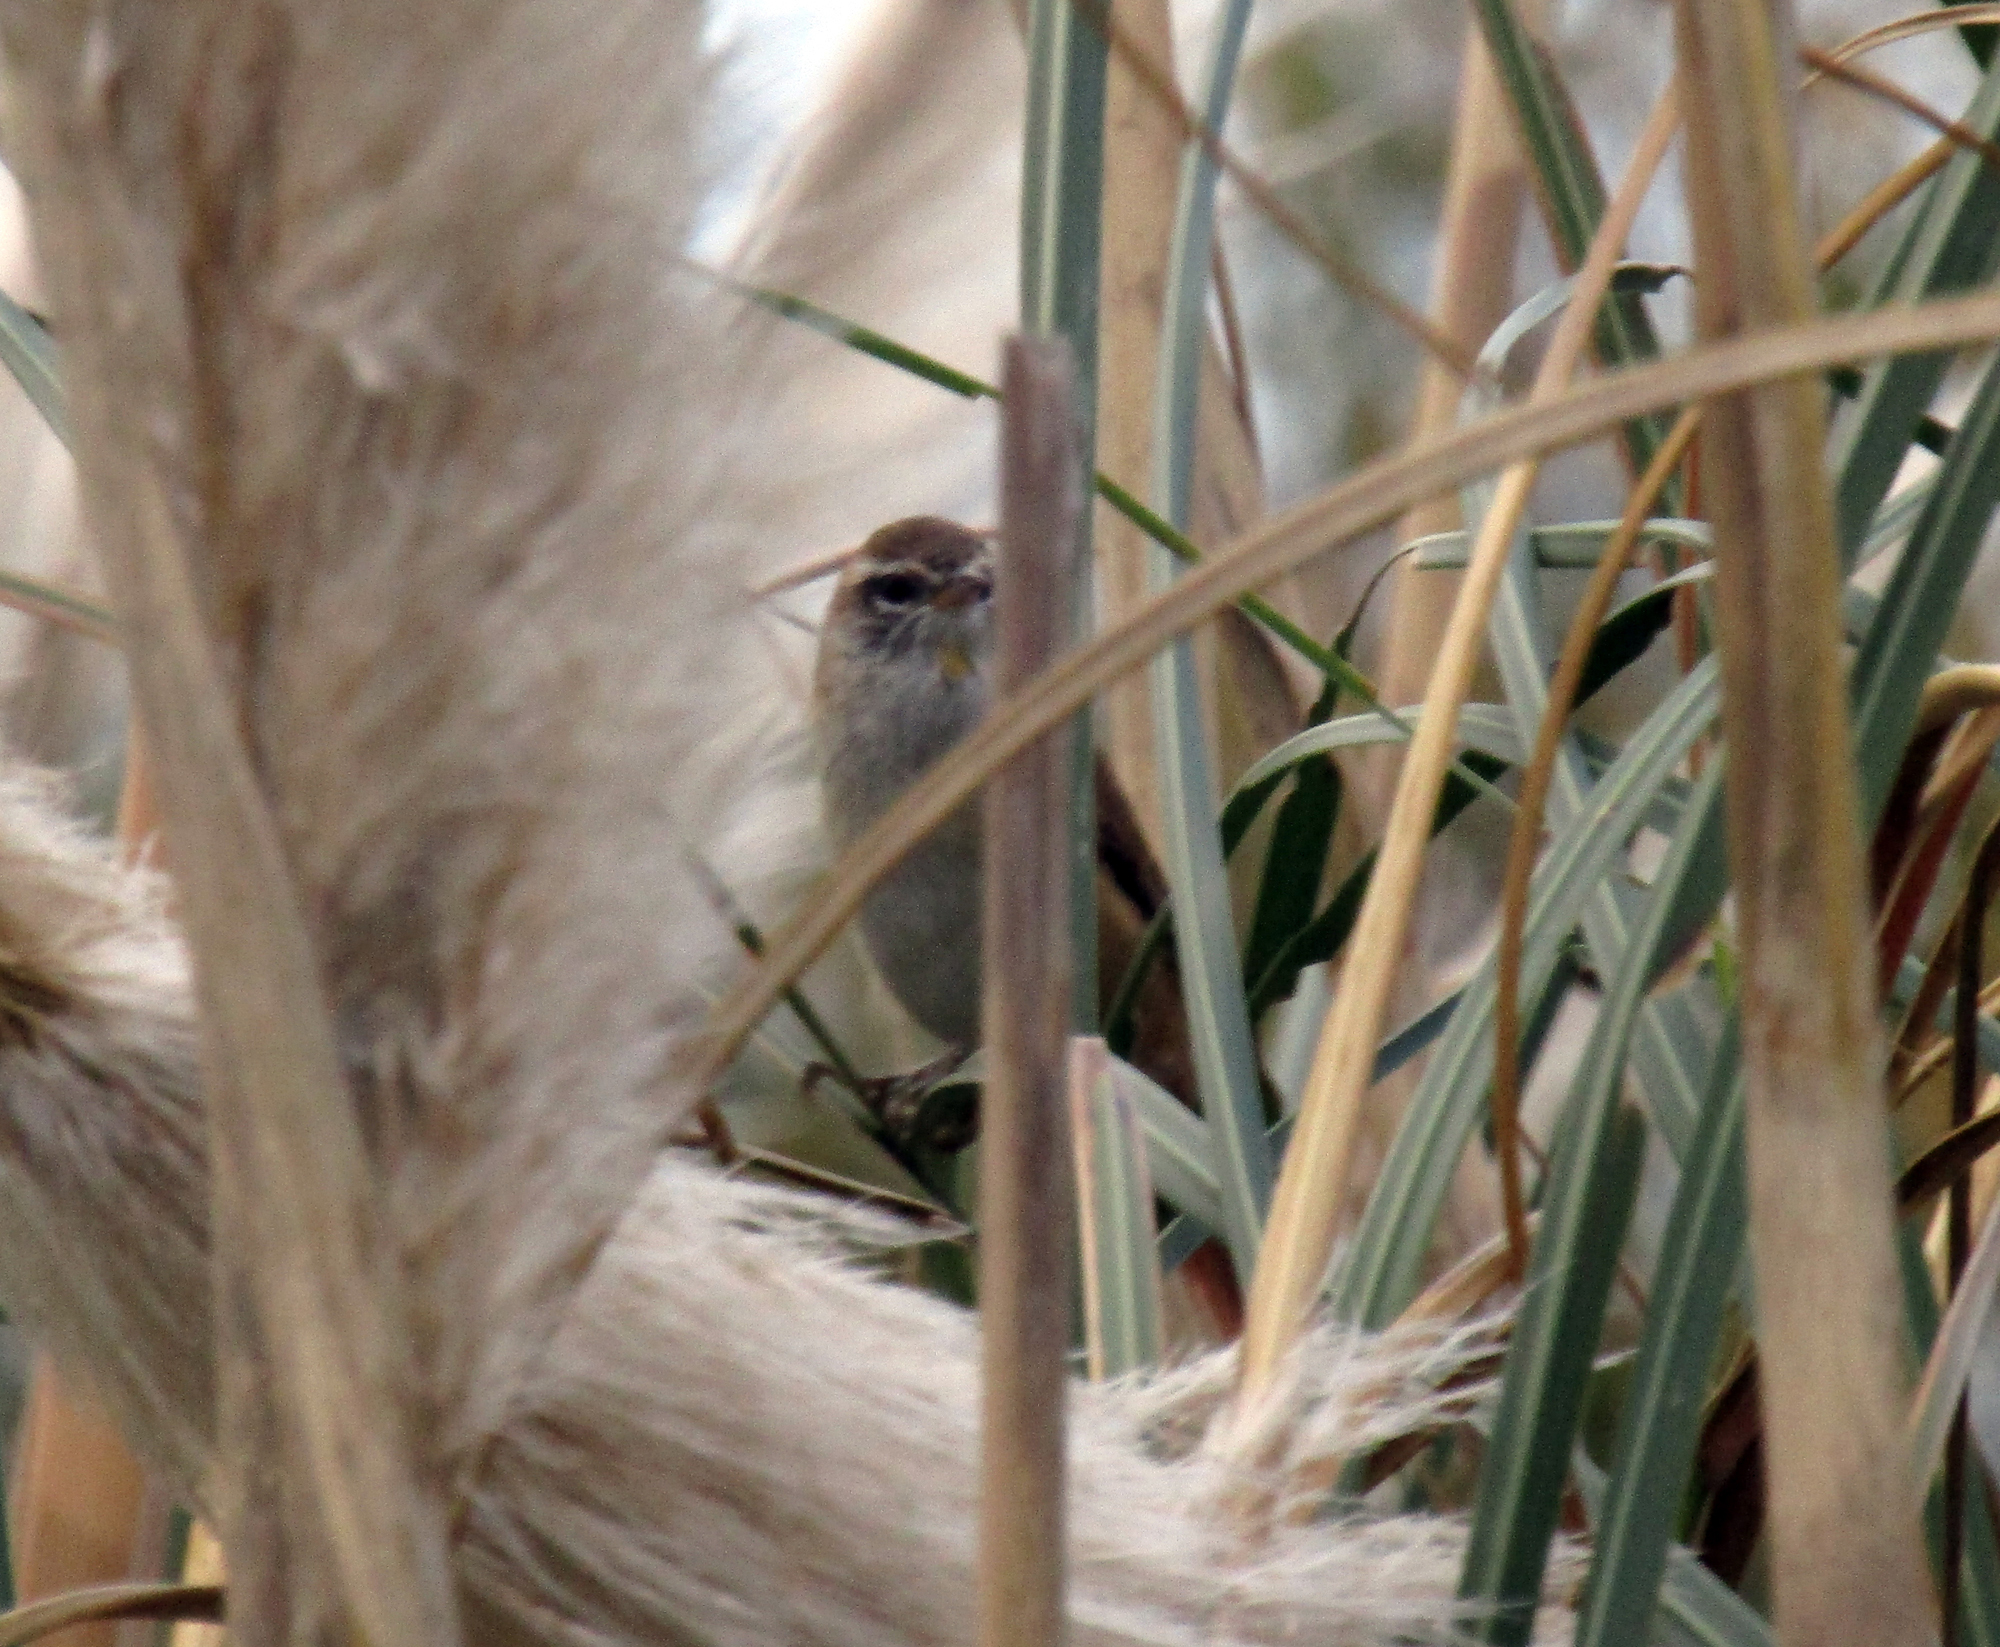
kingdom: Animalia
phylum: Chordata
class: Aves
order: Passeriformes
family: Furnariidae
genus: Cranioleuca
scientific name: Cranioleuca sulphurifera
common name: Sulphur-bearded spinetail
